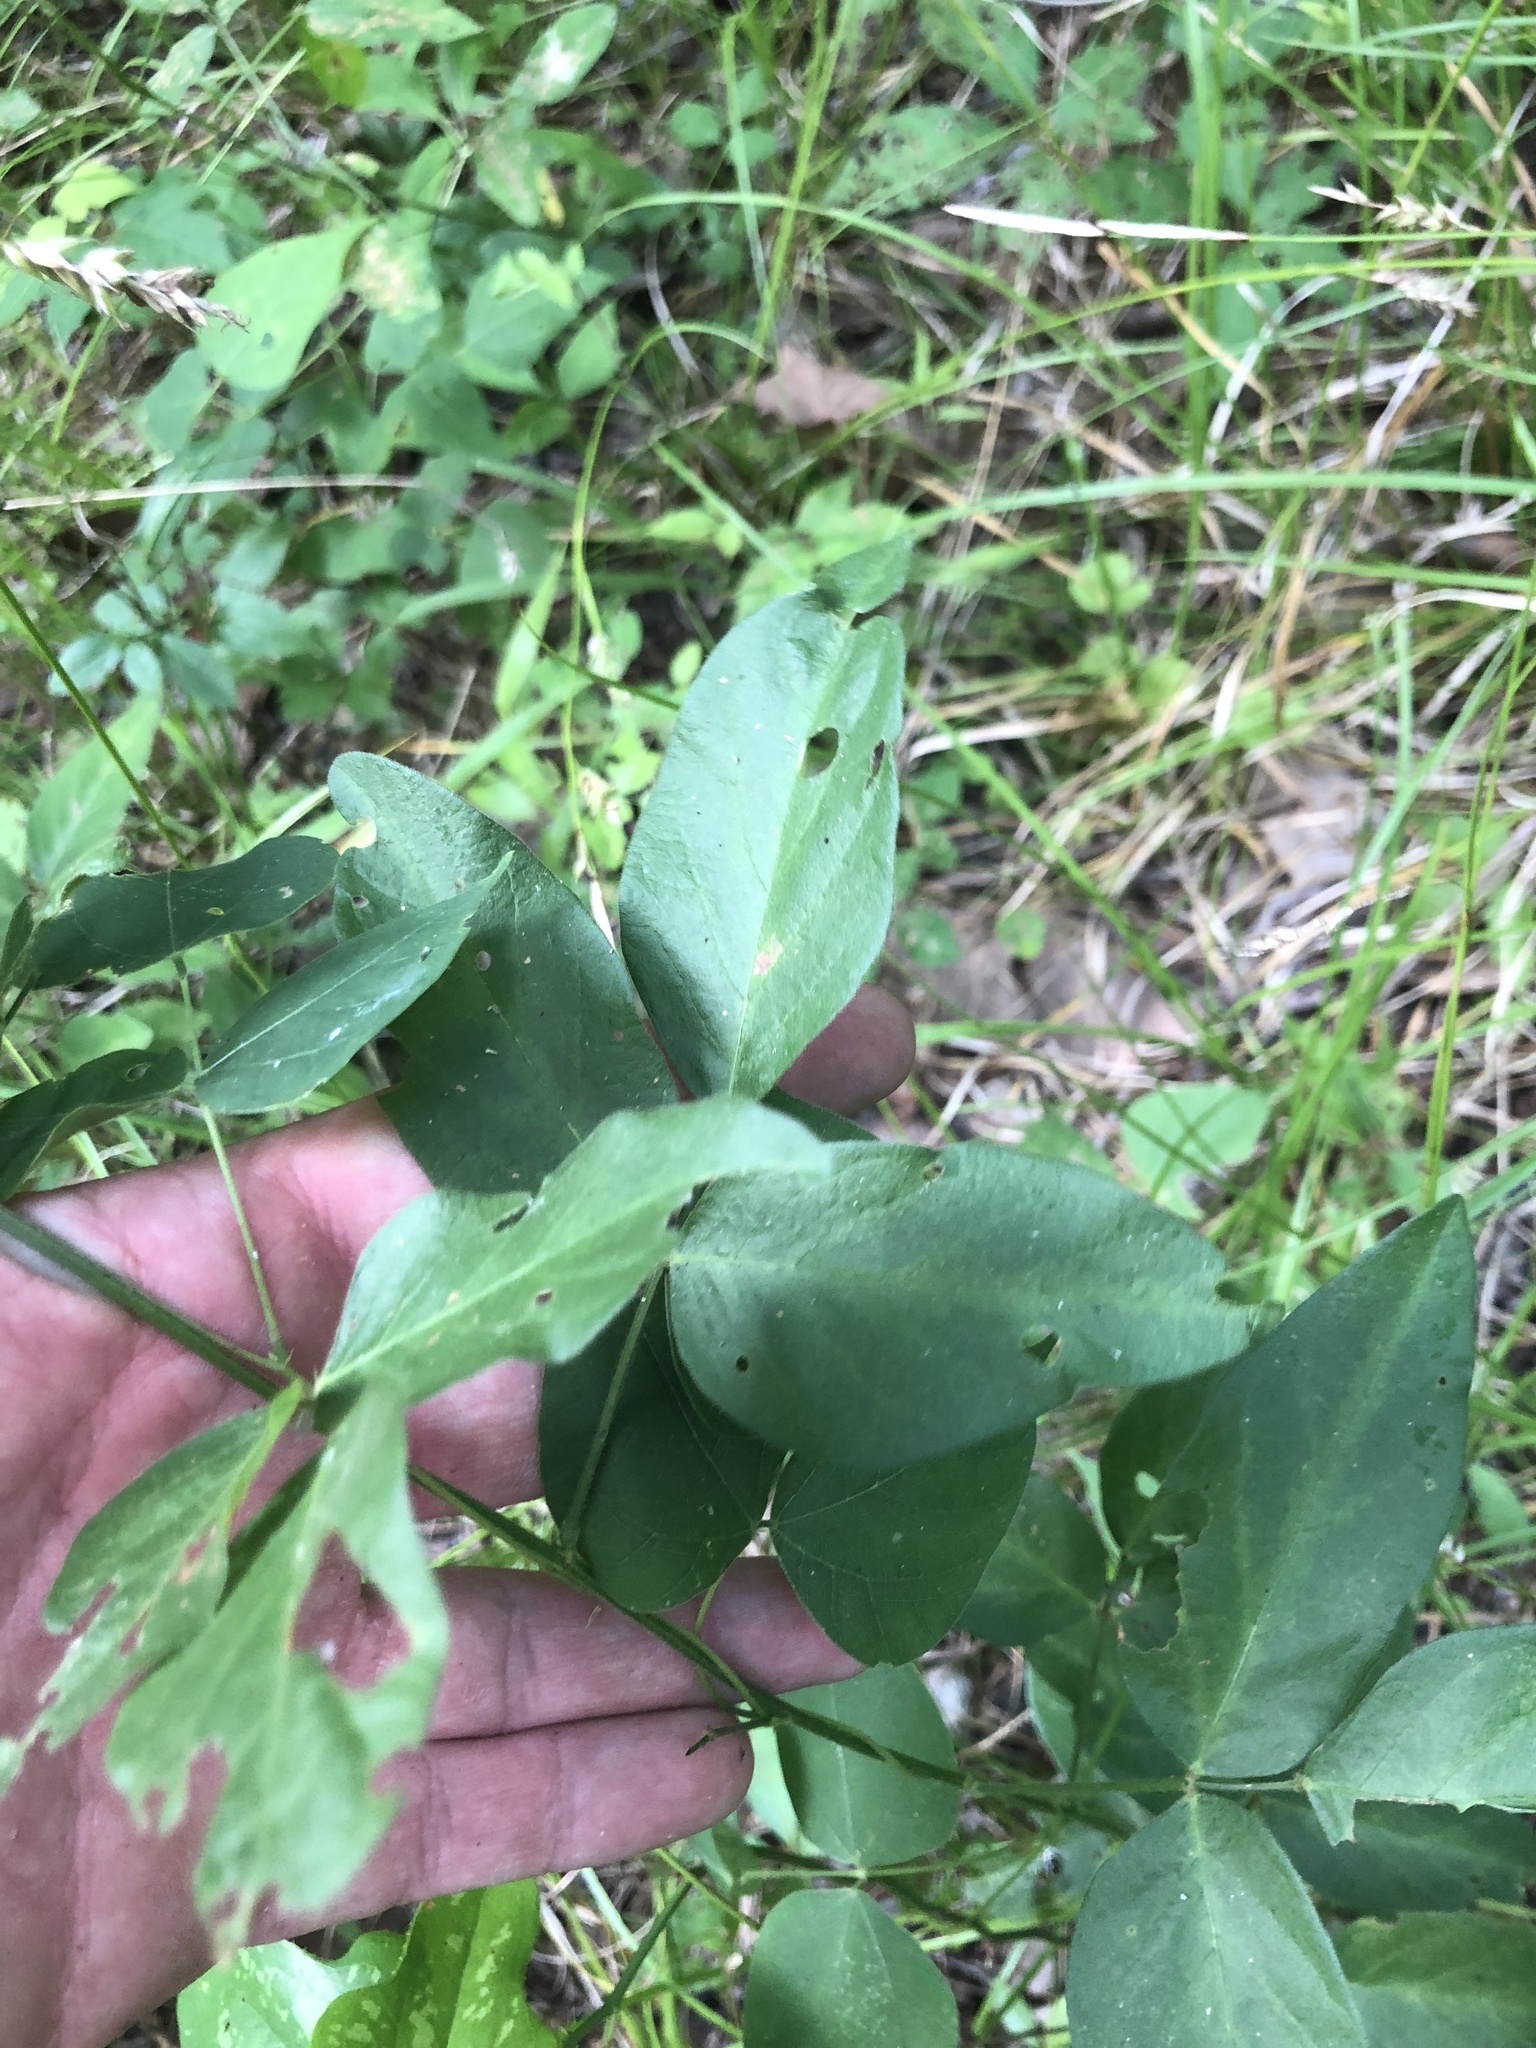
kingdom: Plantae
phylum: Tracheophyta
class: Magnoliopsida
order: Fabales
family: Fabaceae
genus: Desmodium
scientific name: Desmodium glabellum
